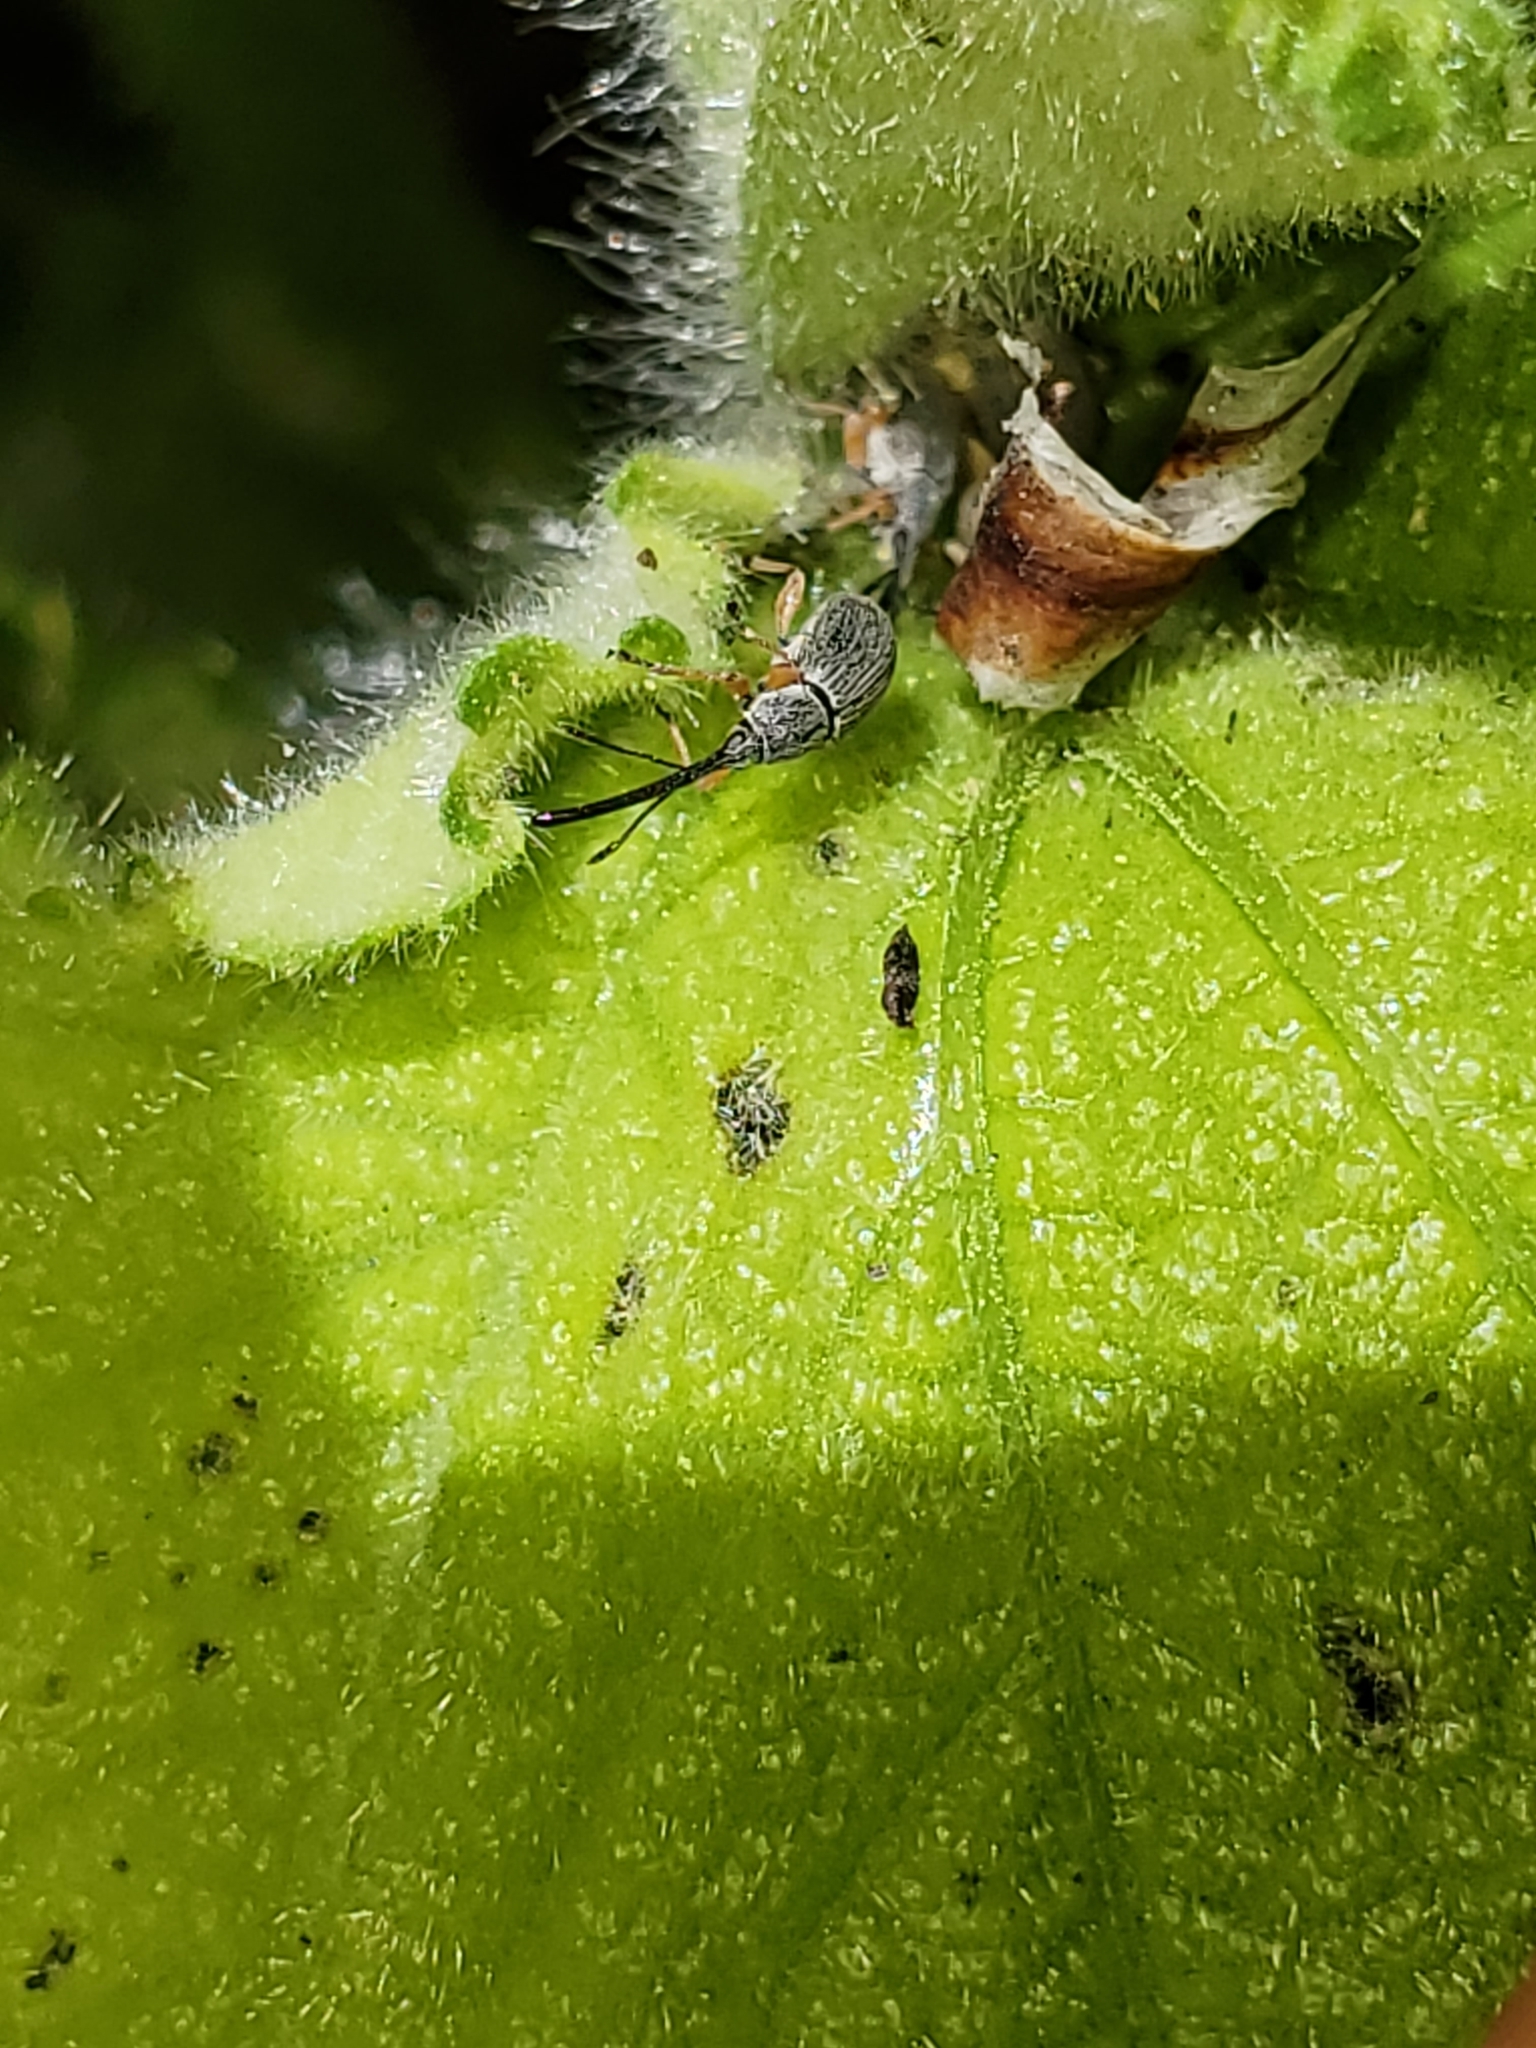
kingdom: Animalia
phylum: Arthropoda
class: Insecta
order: Coleoptera
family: Brentidae
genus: Rhopalapion
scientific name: Rhopalapion longirostre
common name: Hollyhock weevil
